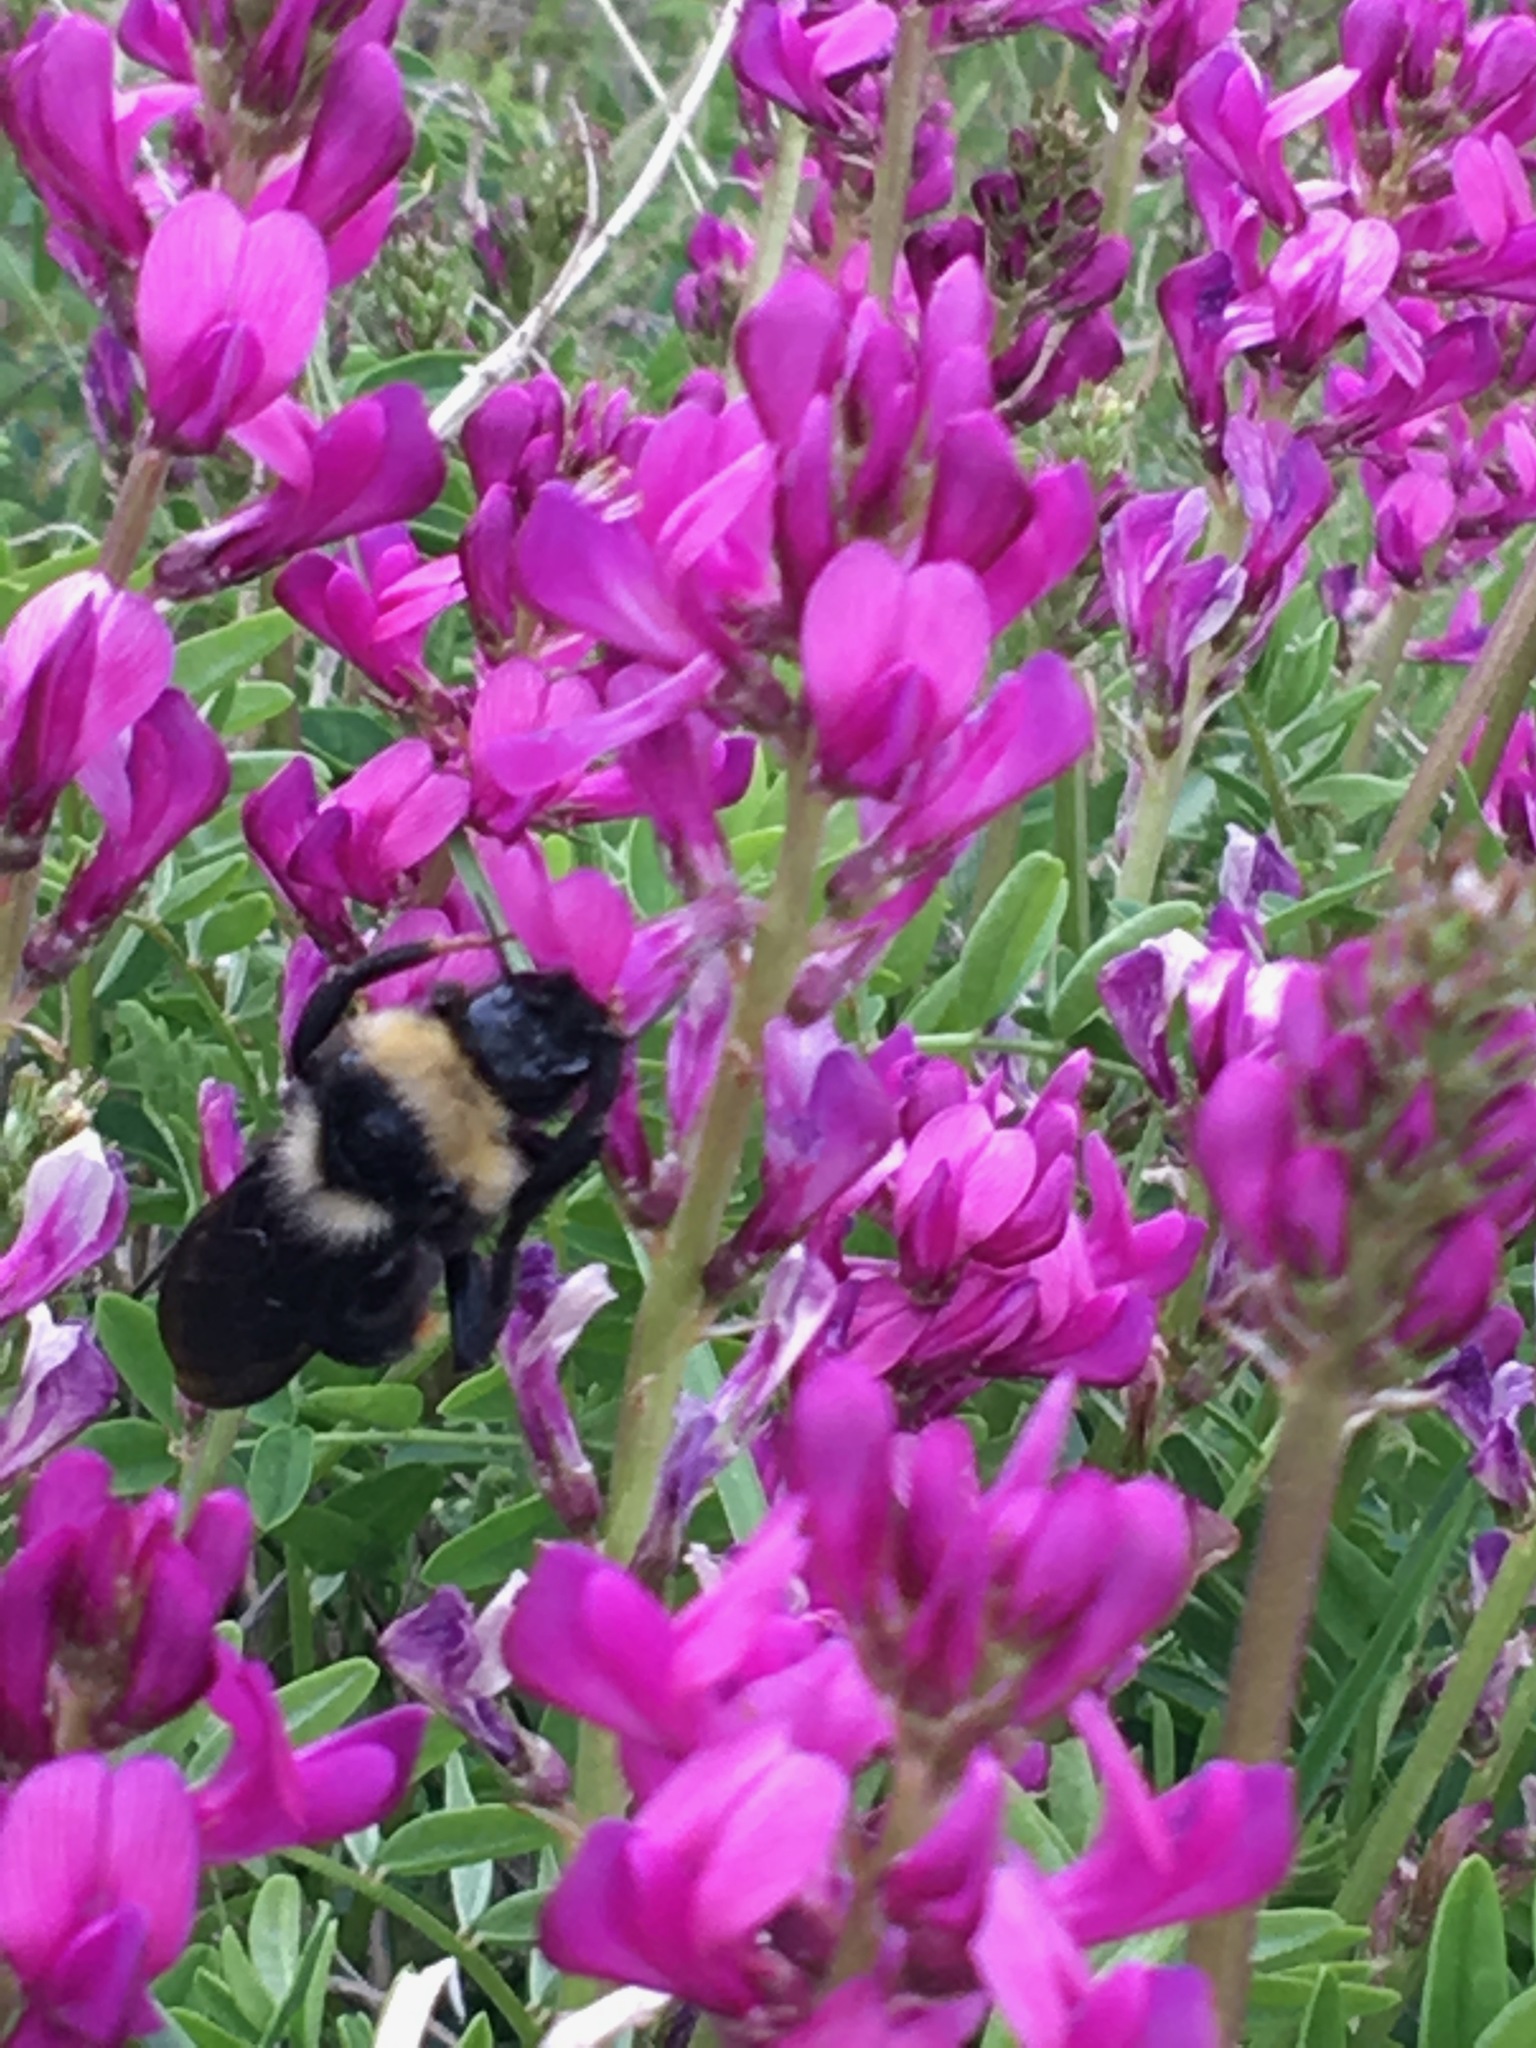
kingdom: Animalia
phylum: Arthropoda
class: Insecta
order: Hymenoptera
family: Apidae
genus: Bombus
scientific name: Bombus rupestris
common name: Hill cuckoo-bee
